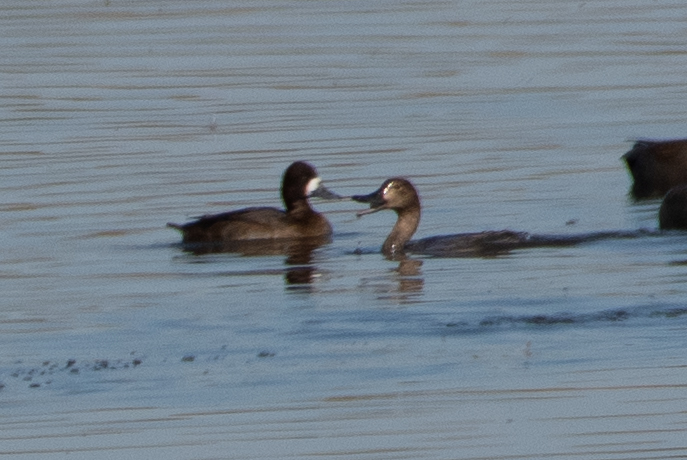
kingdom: Animalia
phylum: Chordata
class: Aves
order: Anseriformes
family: Anatidae
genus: Aythya
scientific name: Aythya affinis
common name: Lesser scaup
